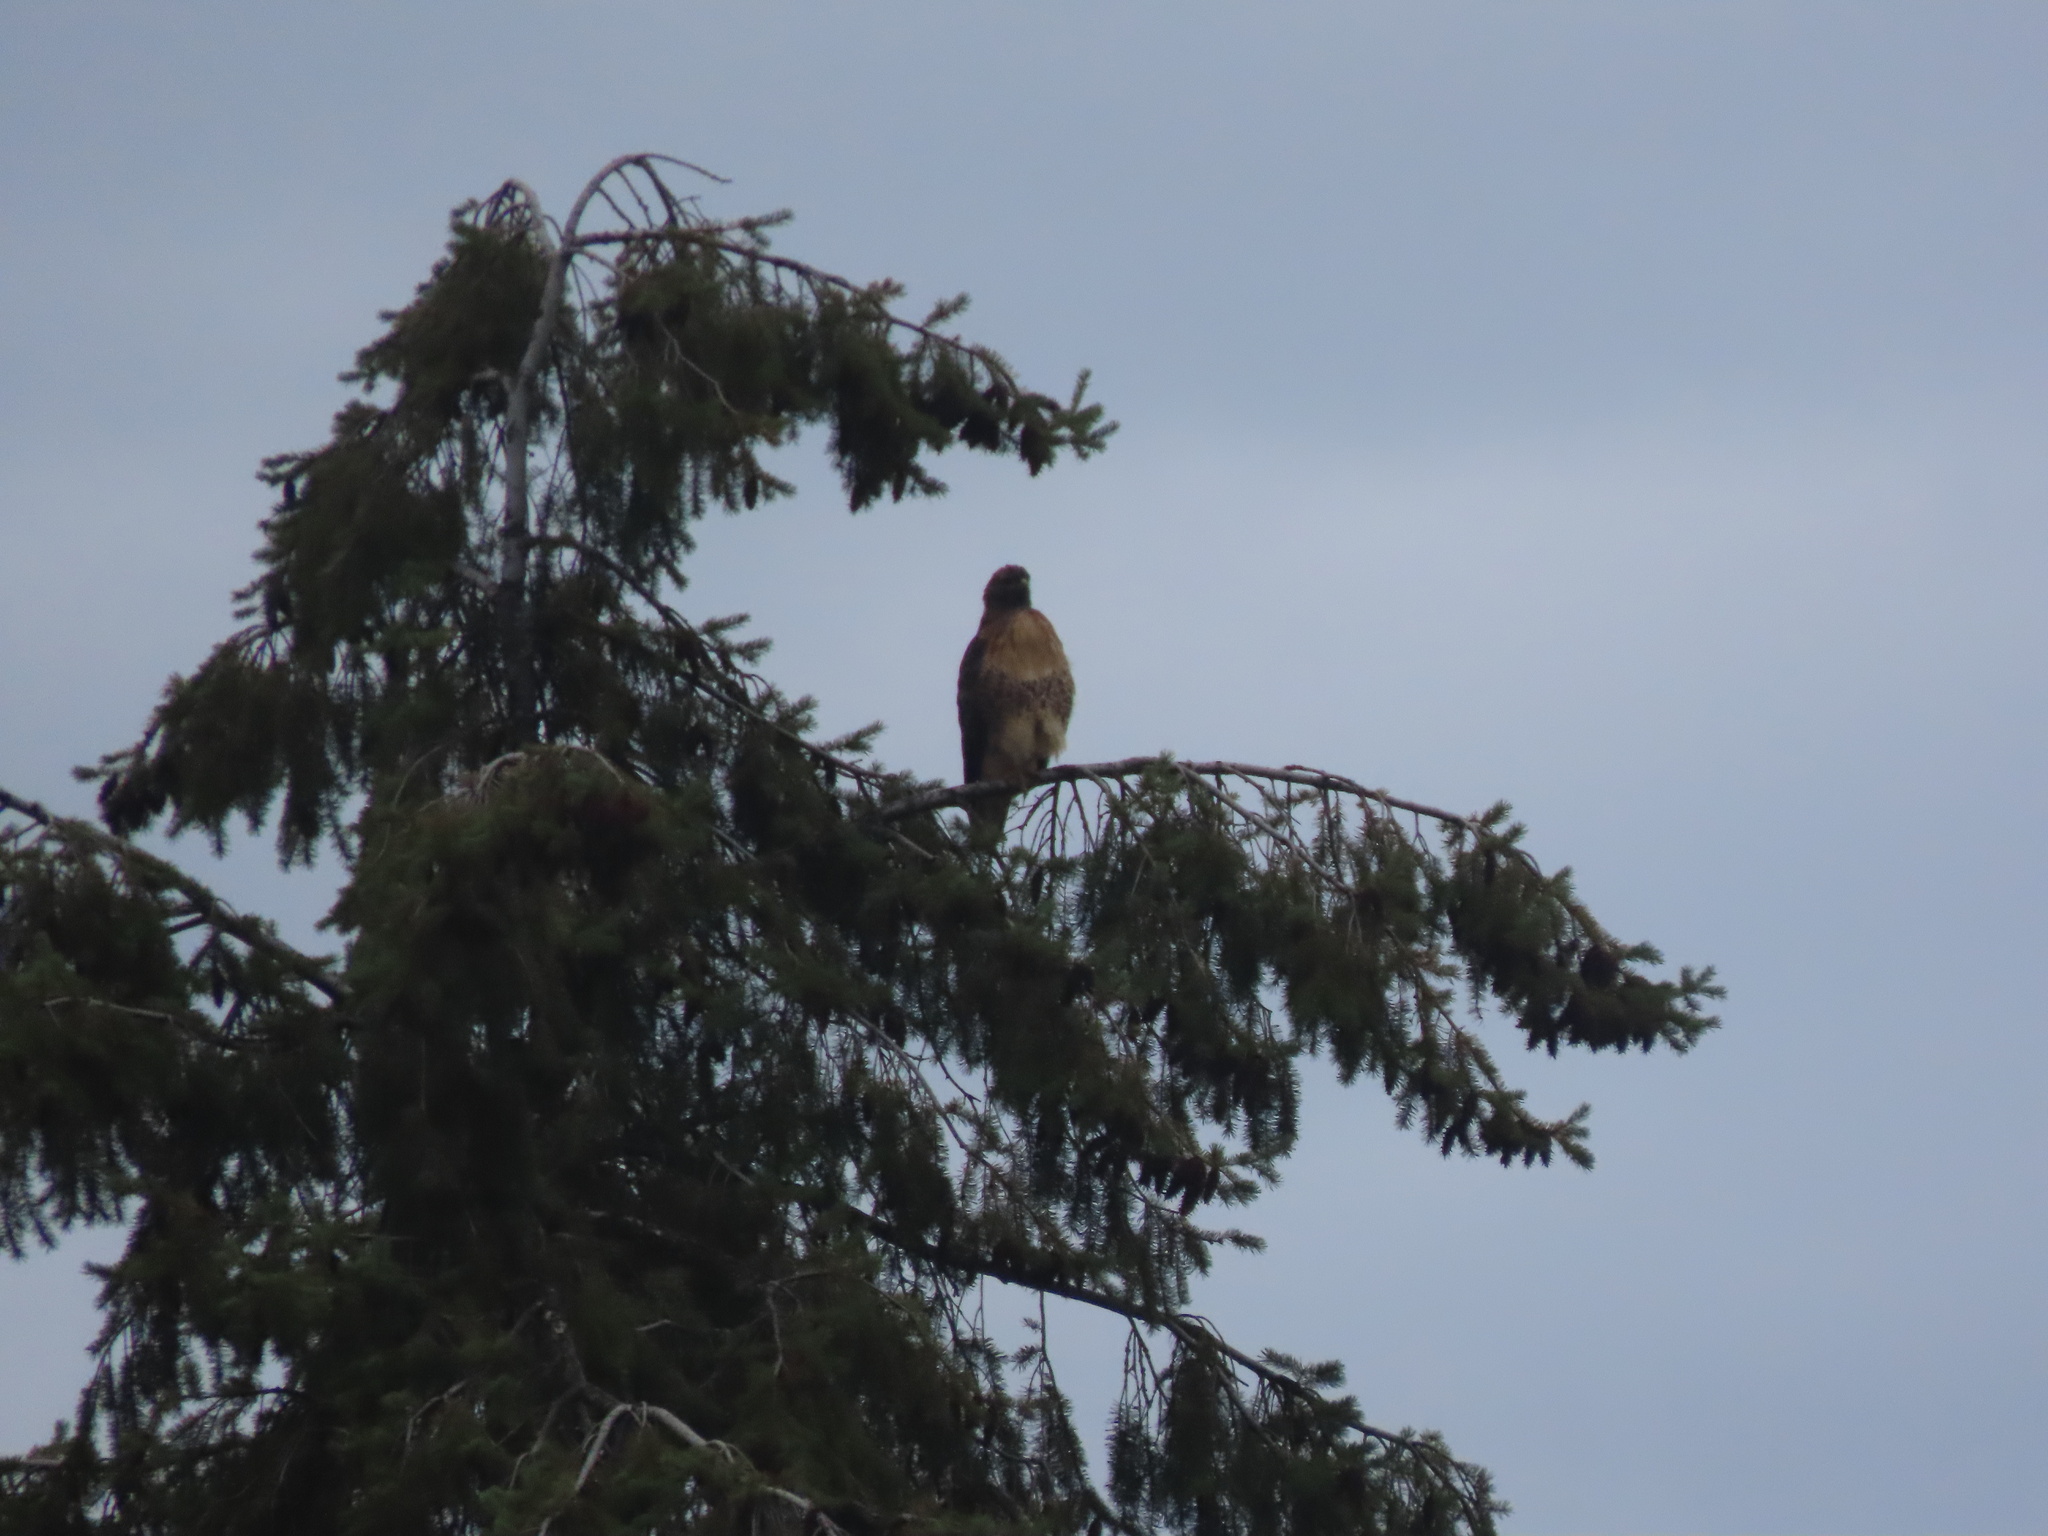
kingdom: Animalia
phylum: Chordata
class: Aves
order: Accipitriformes
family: Accipitridae
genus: Buteo
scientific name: Buteo jamaicensis
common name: Red-tailed hawk
